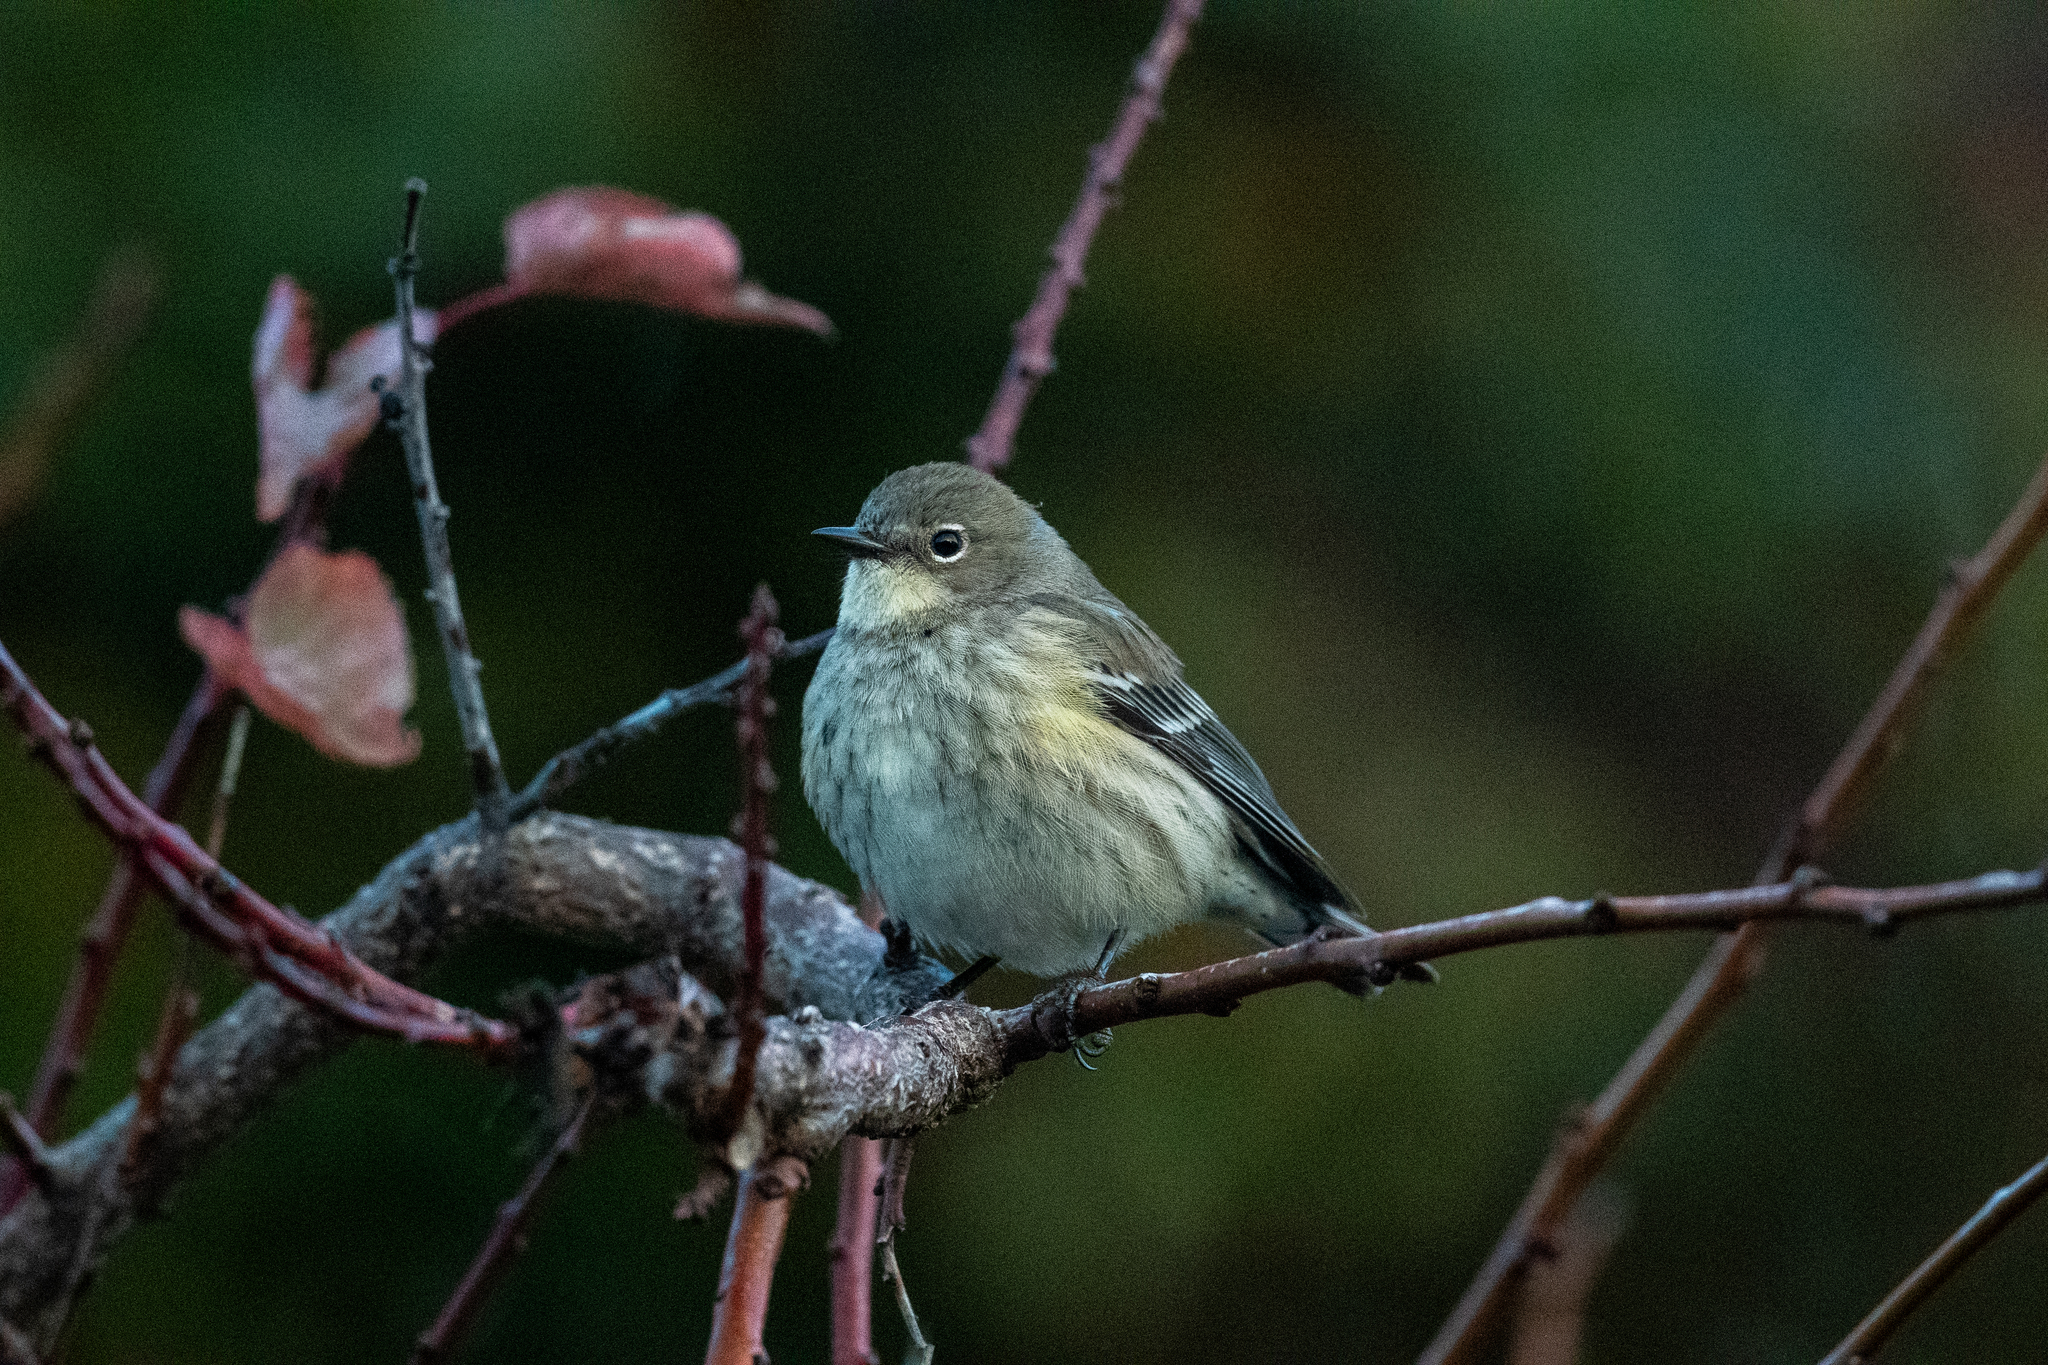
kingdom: Animalia
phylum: Chordata
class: Aves
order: Passeriformes
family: Parulidae
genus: Setophaga
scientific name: Setophaga coronata
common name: Myrtle warbler
